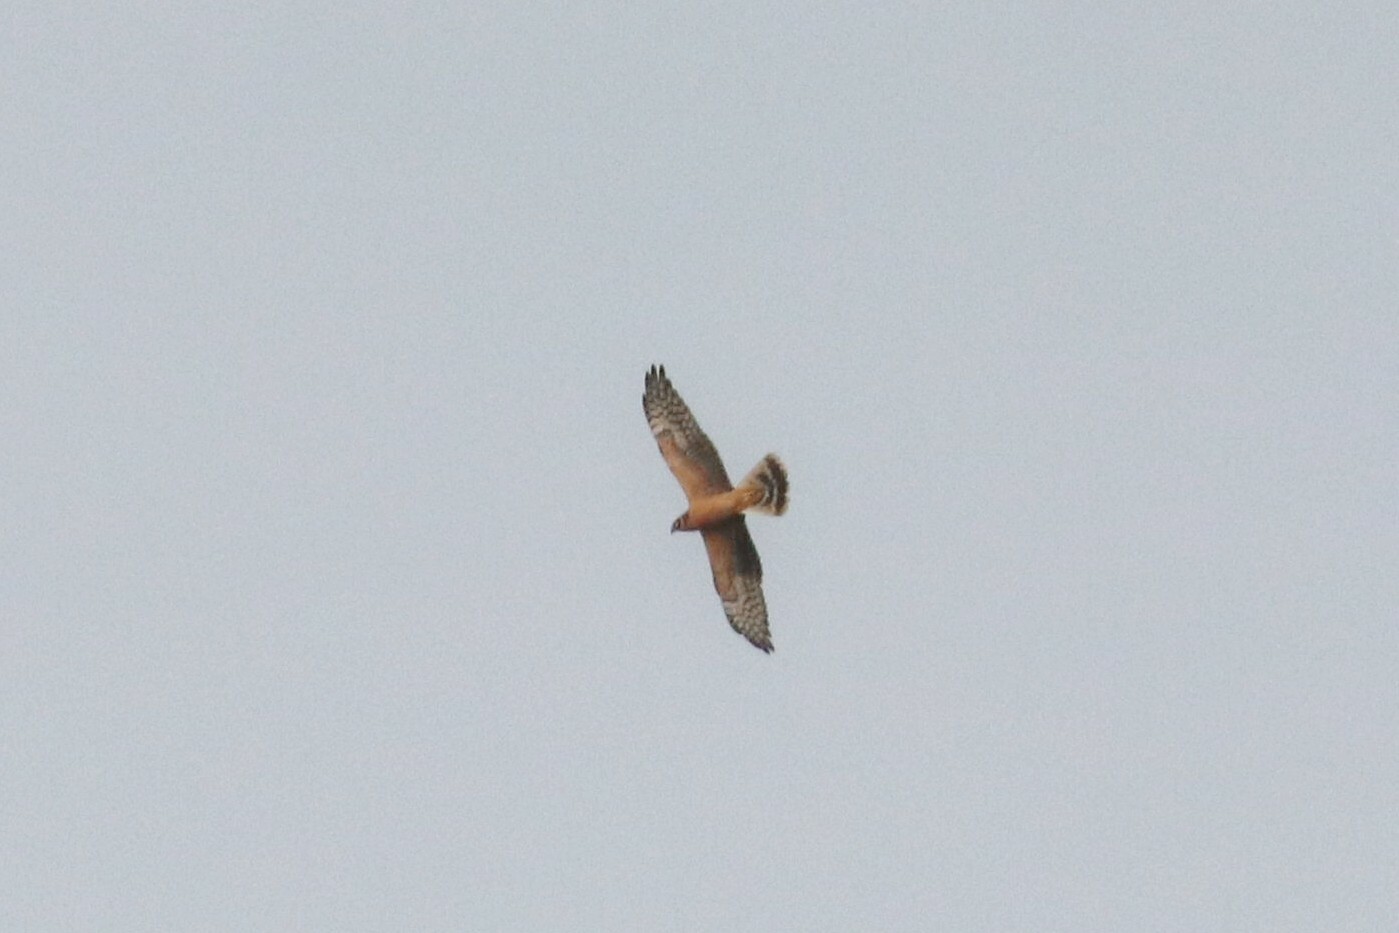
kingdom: Animalia
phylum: Chordata
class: Aves
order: Accipitriformes
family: Accipitridae
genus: Circus
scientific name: Circus macrourus
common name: Pallid harrier
